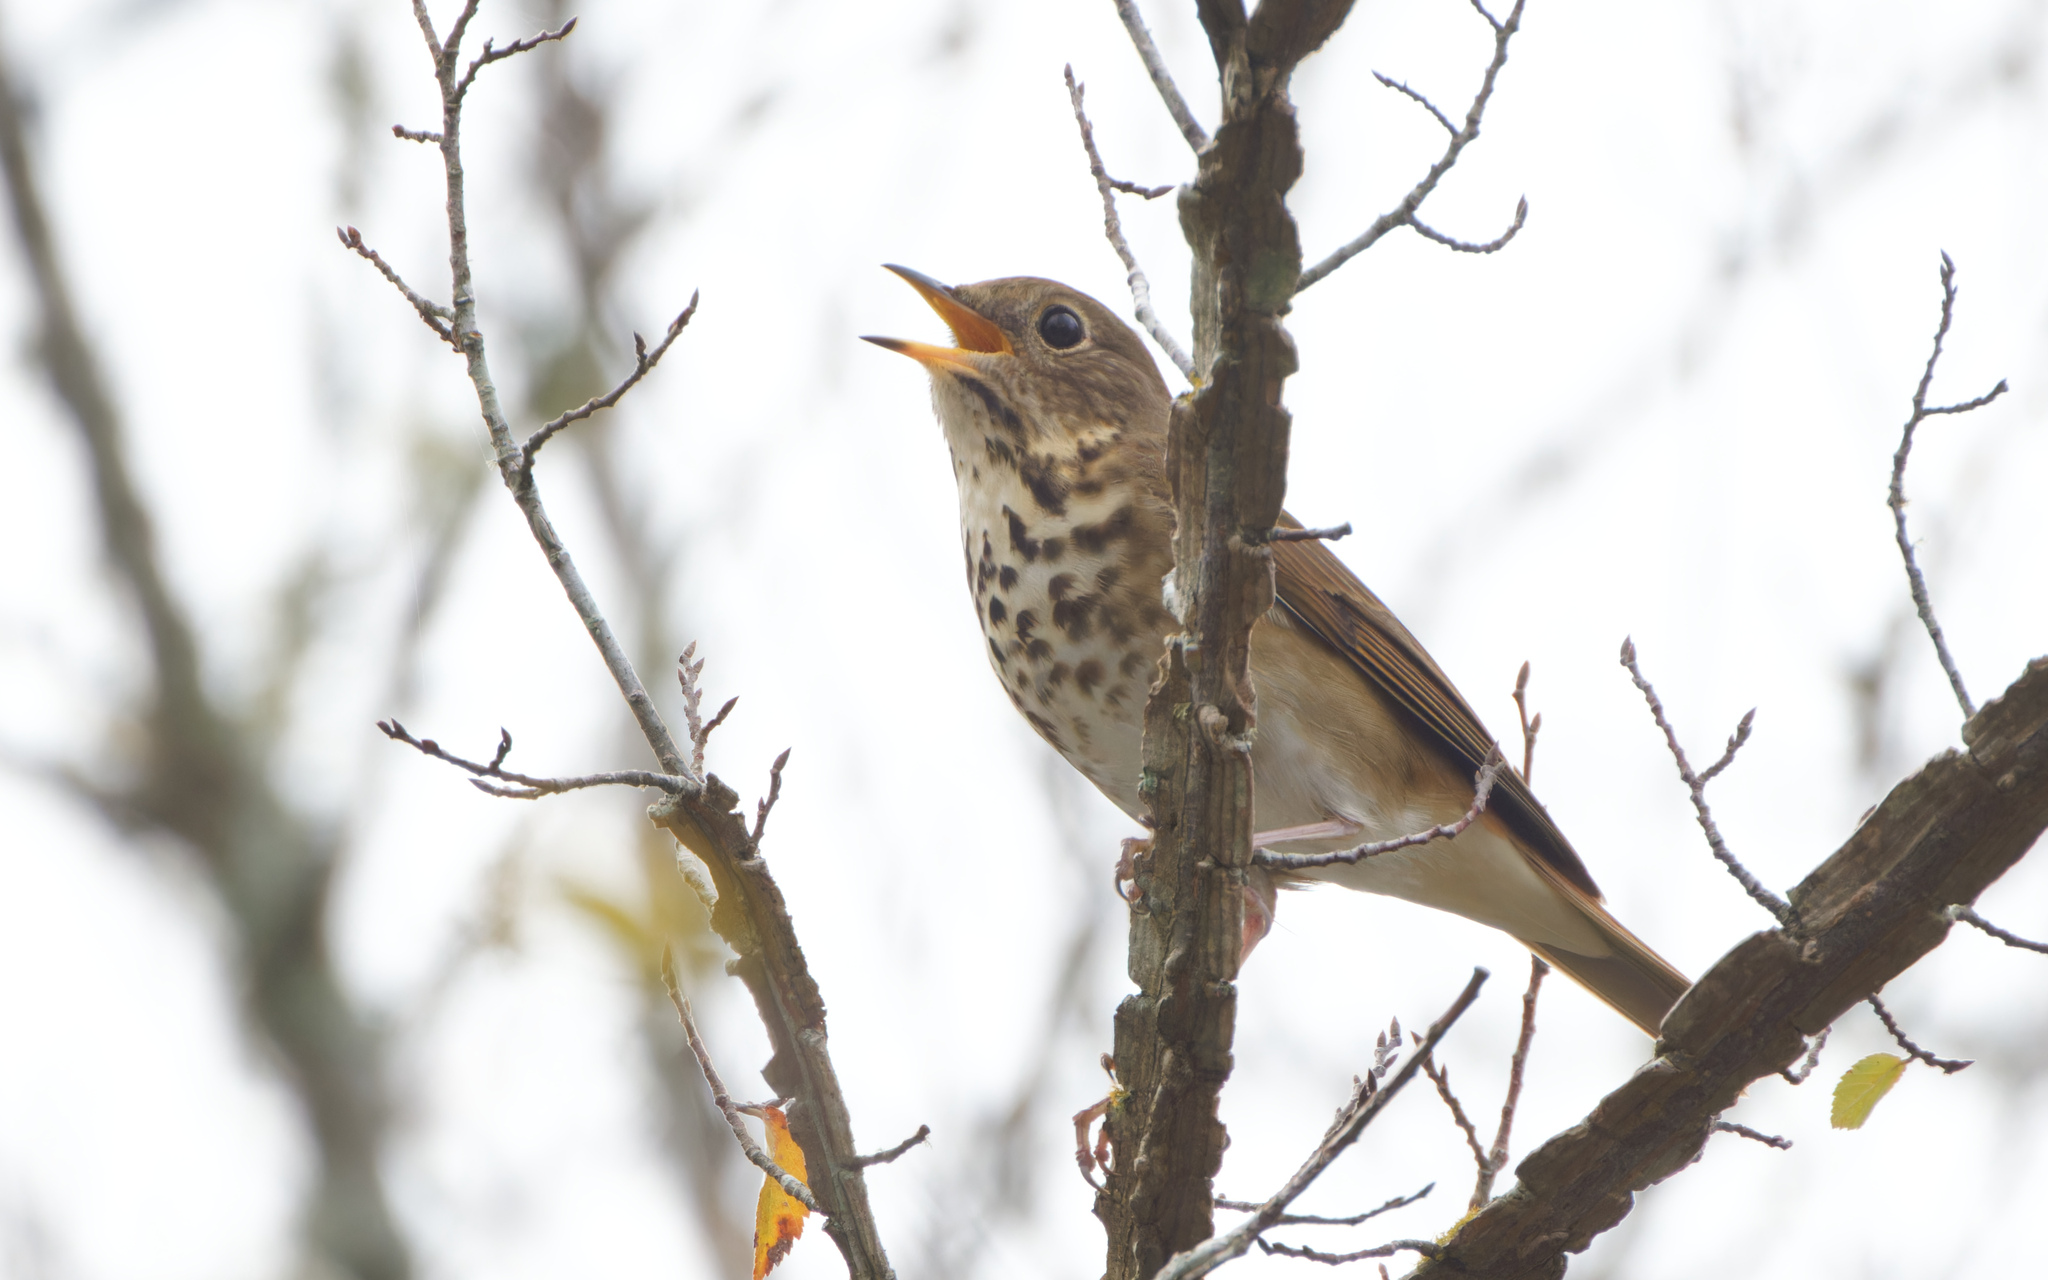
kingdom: Animalia
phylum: Chordata
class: Aves
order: Passeriformes
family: Turdidae
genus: Catharus
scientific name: Catharus guttatus
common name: Hermit thrush
